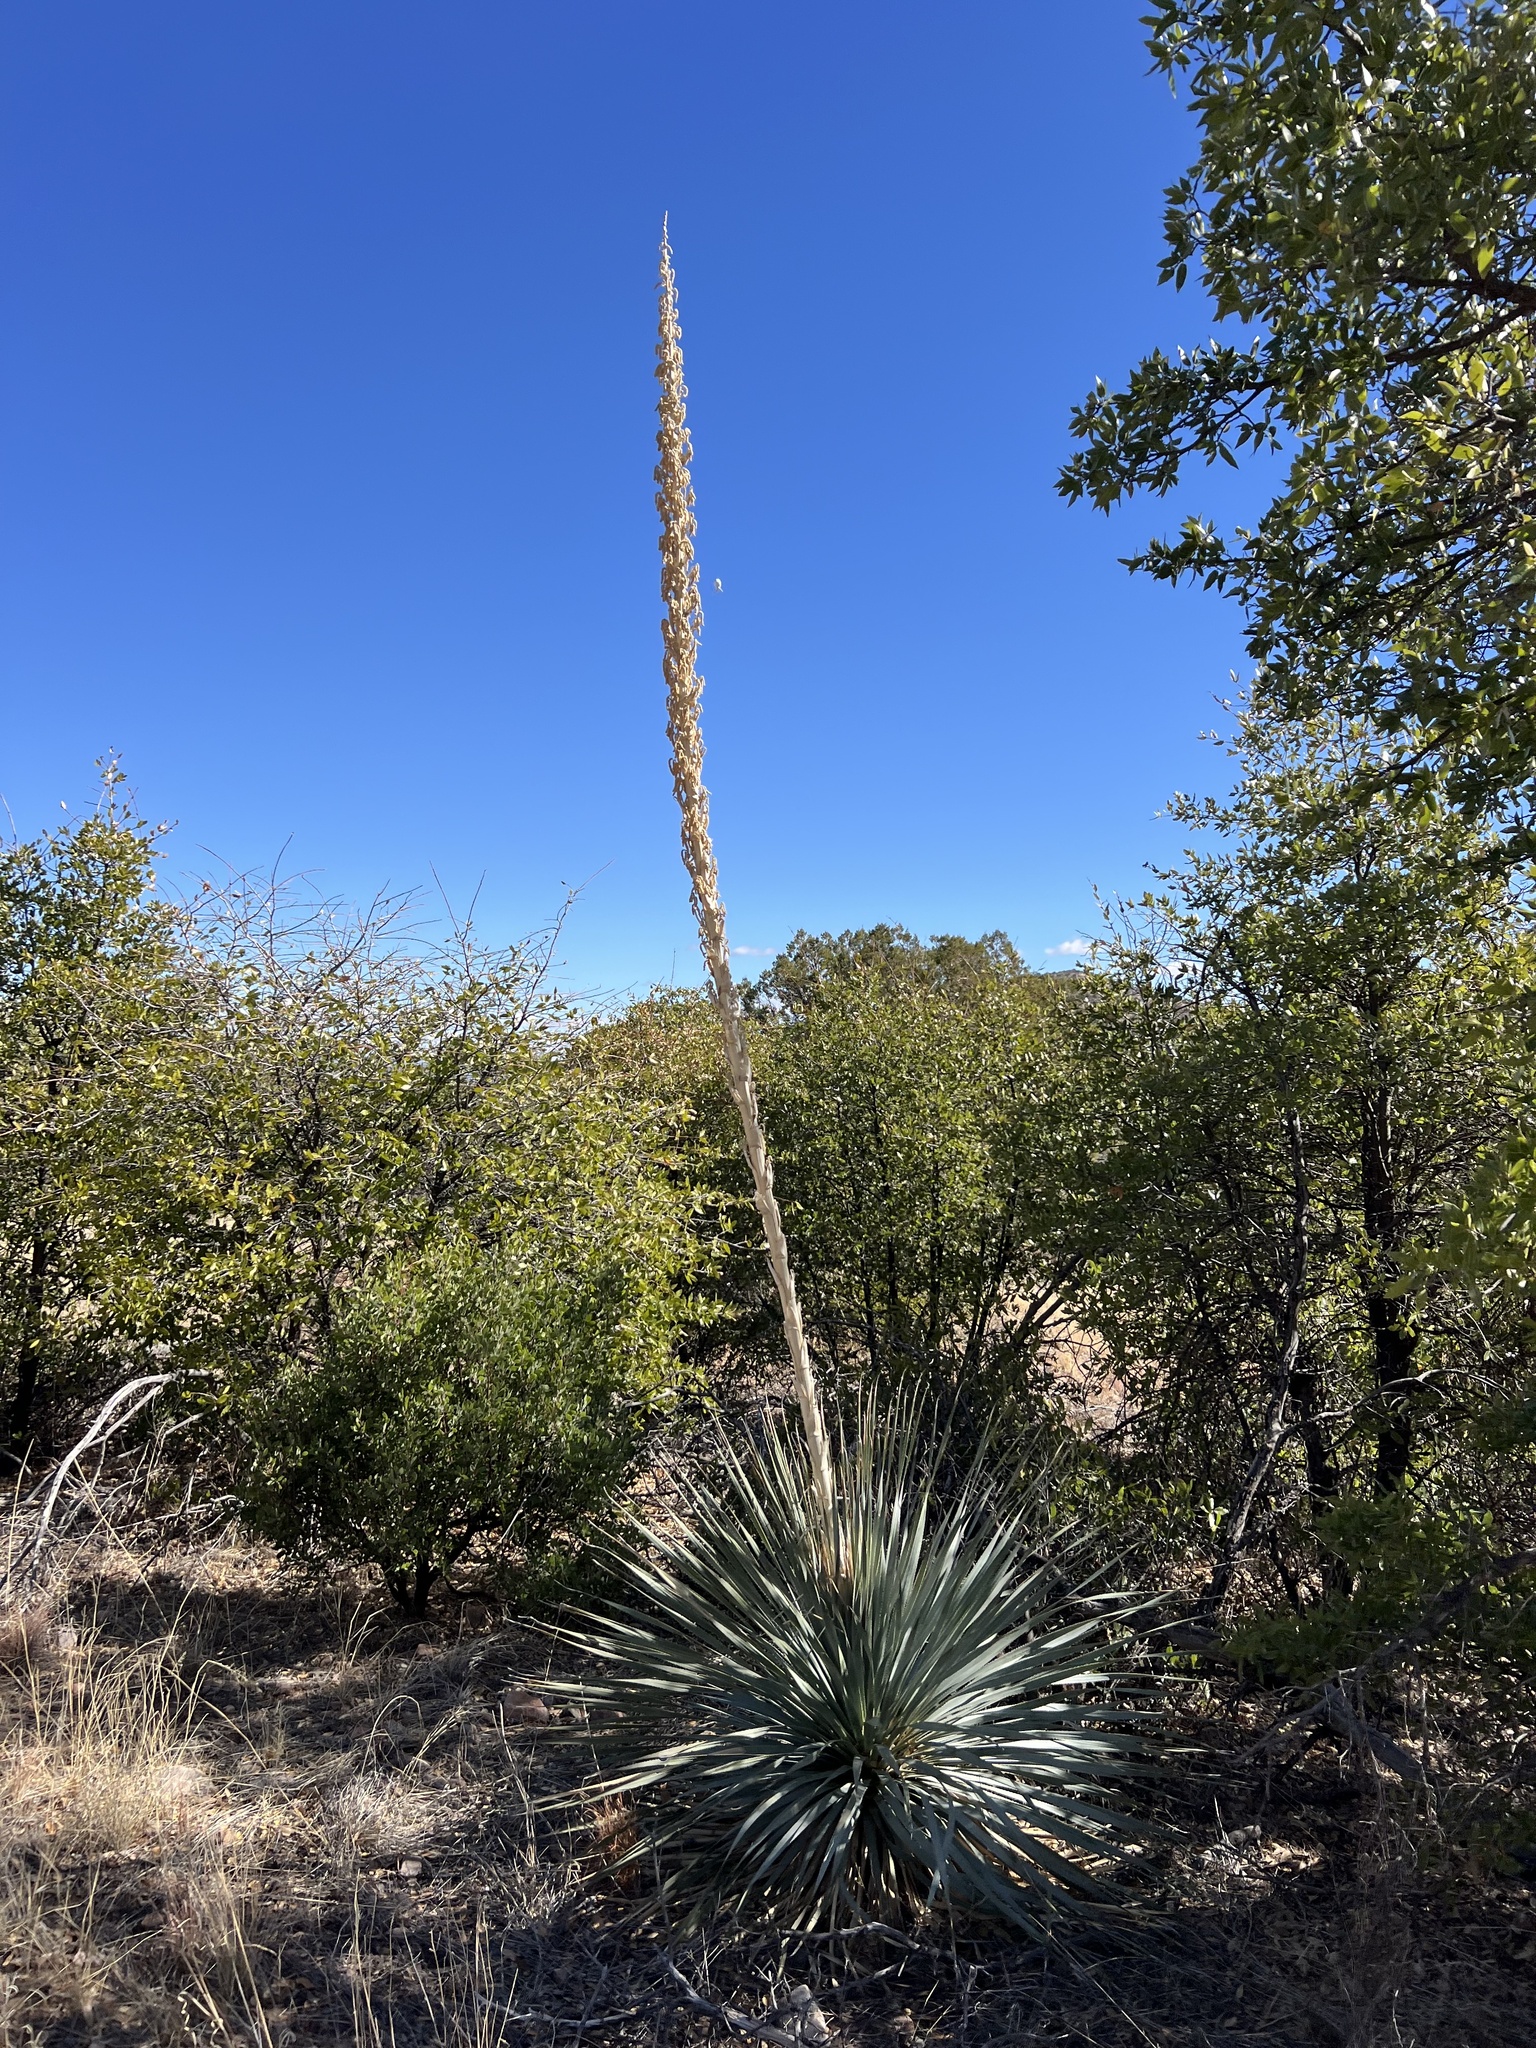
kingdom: Plantae
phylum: Tracheophyta
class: Liliopsida
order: Asparagales
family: Asparagaceae
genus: Dasylirion
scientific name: Dasylirion wheeleri
